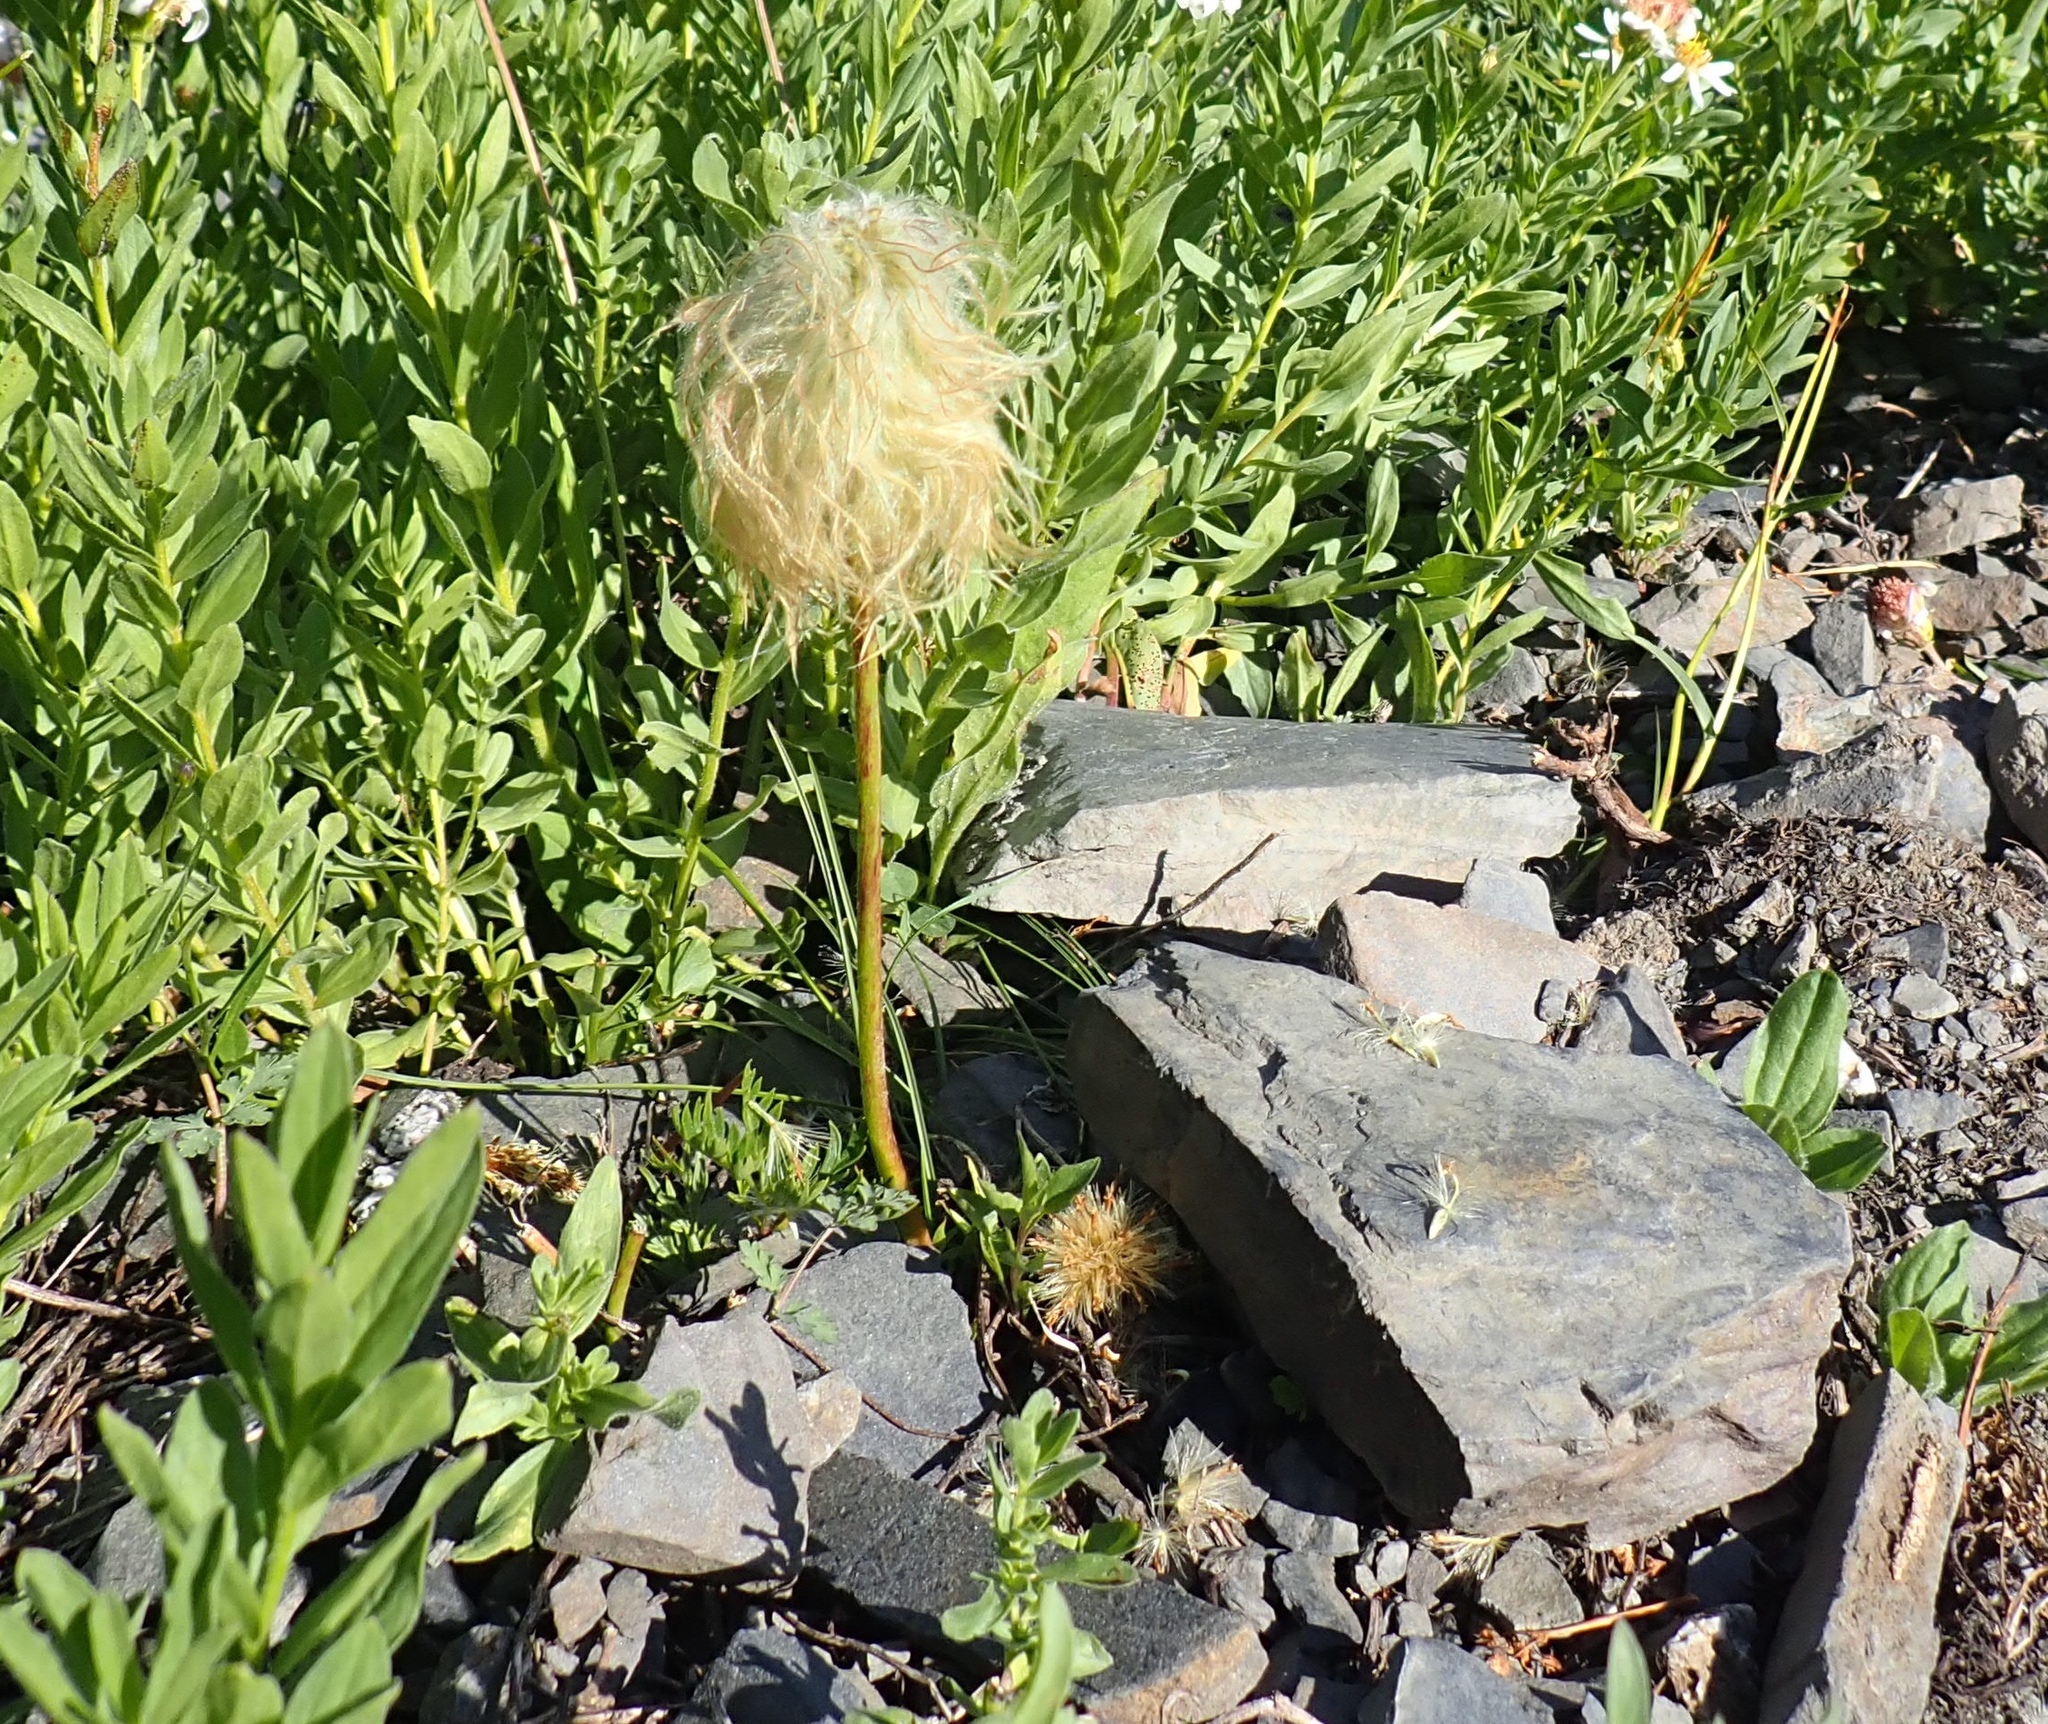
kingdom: Plantae
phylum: Tracheophyta
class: Magnoliopsida
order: Ranunculales
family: Ranunculaceae
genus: Pulsatilla
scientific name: Pulsatilla occidentalis
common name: Mountain pasqueflower
